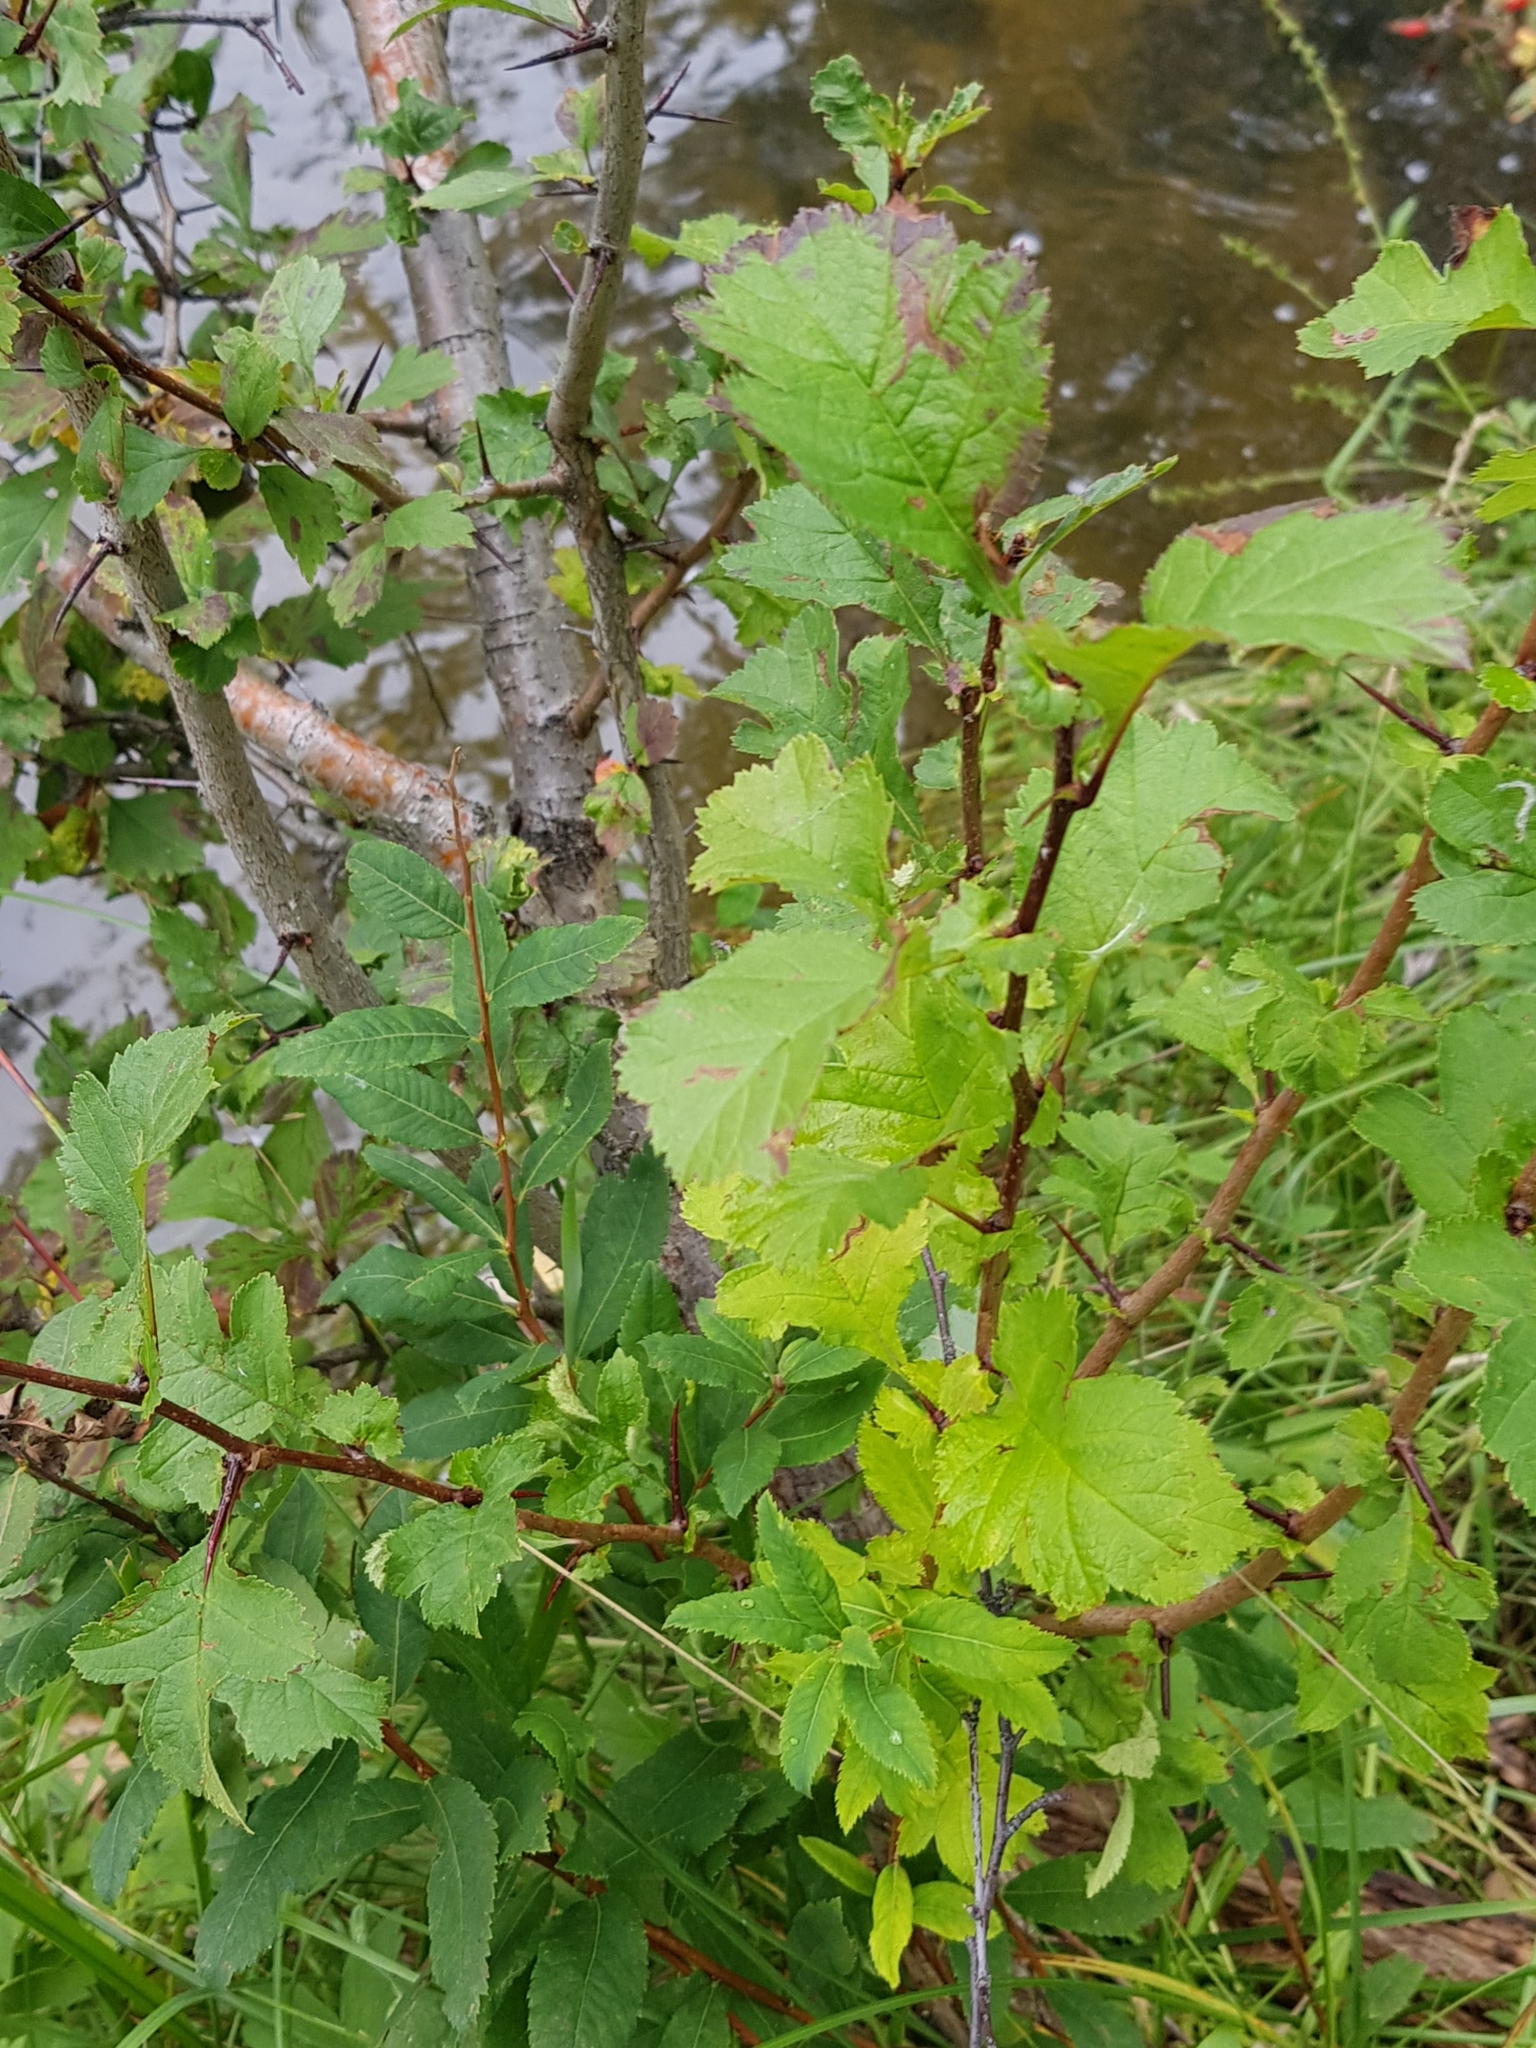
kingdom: Plantae
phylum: Tracheophyta
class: Magnoliopsida
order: Rosales
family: Rosaceae
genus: Crataegus
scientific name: Crataegus sanguinea
